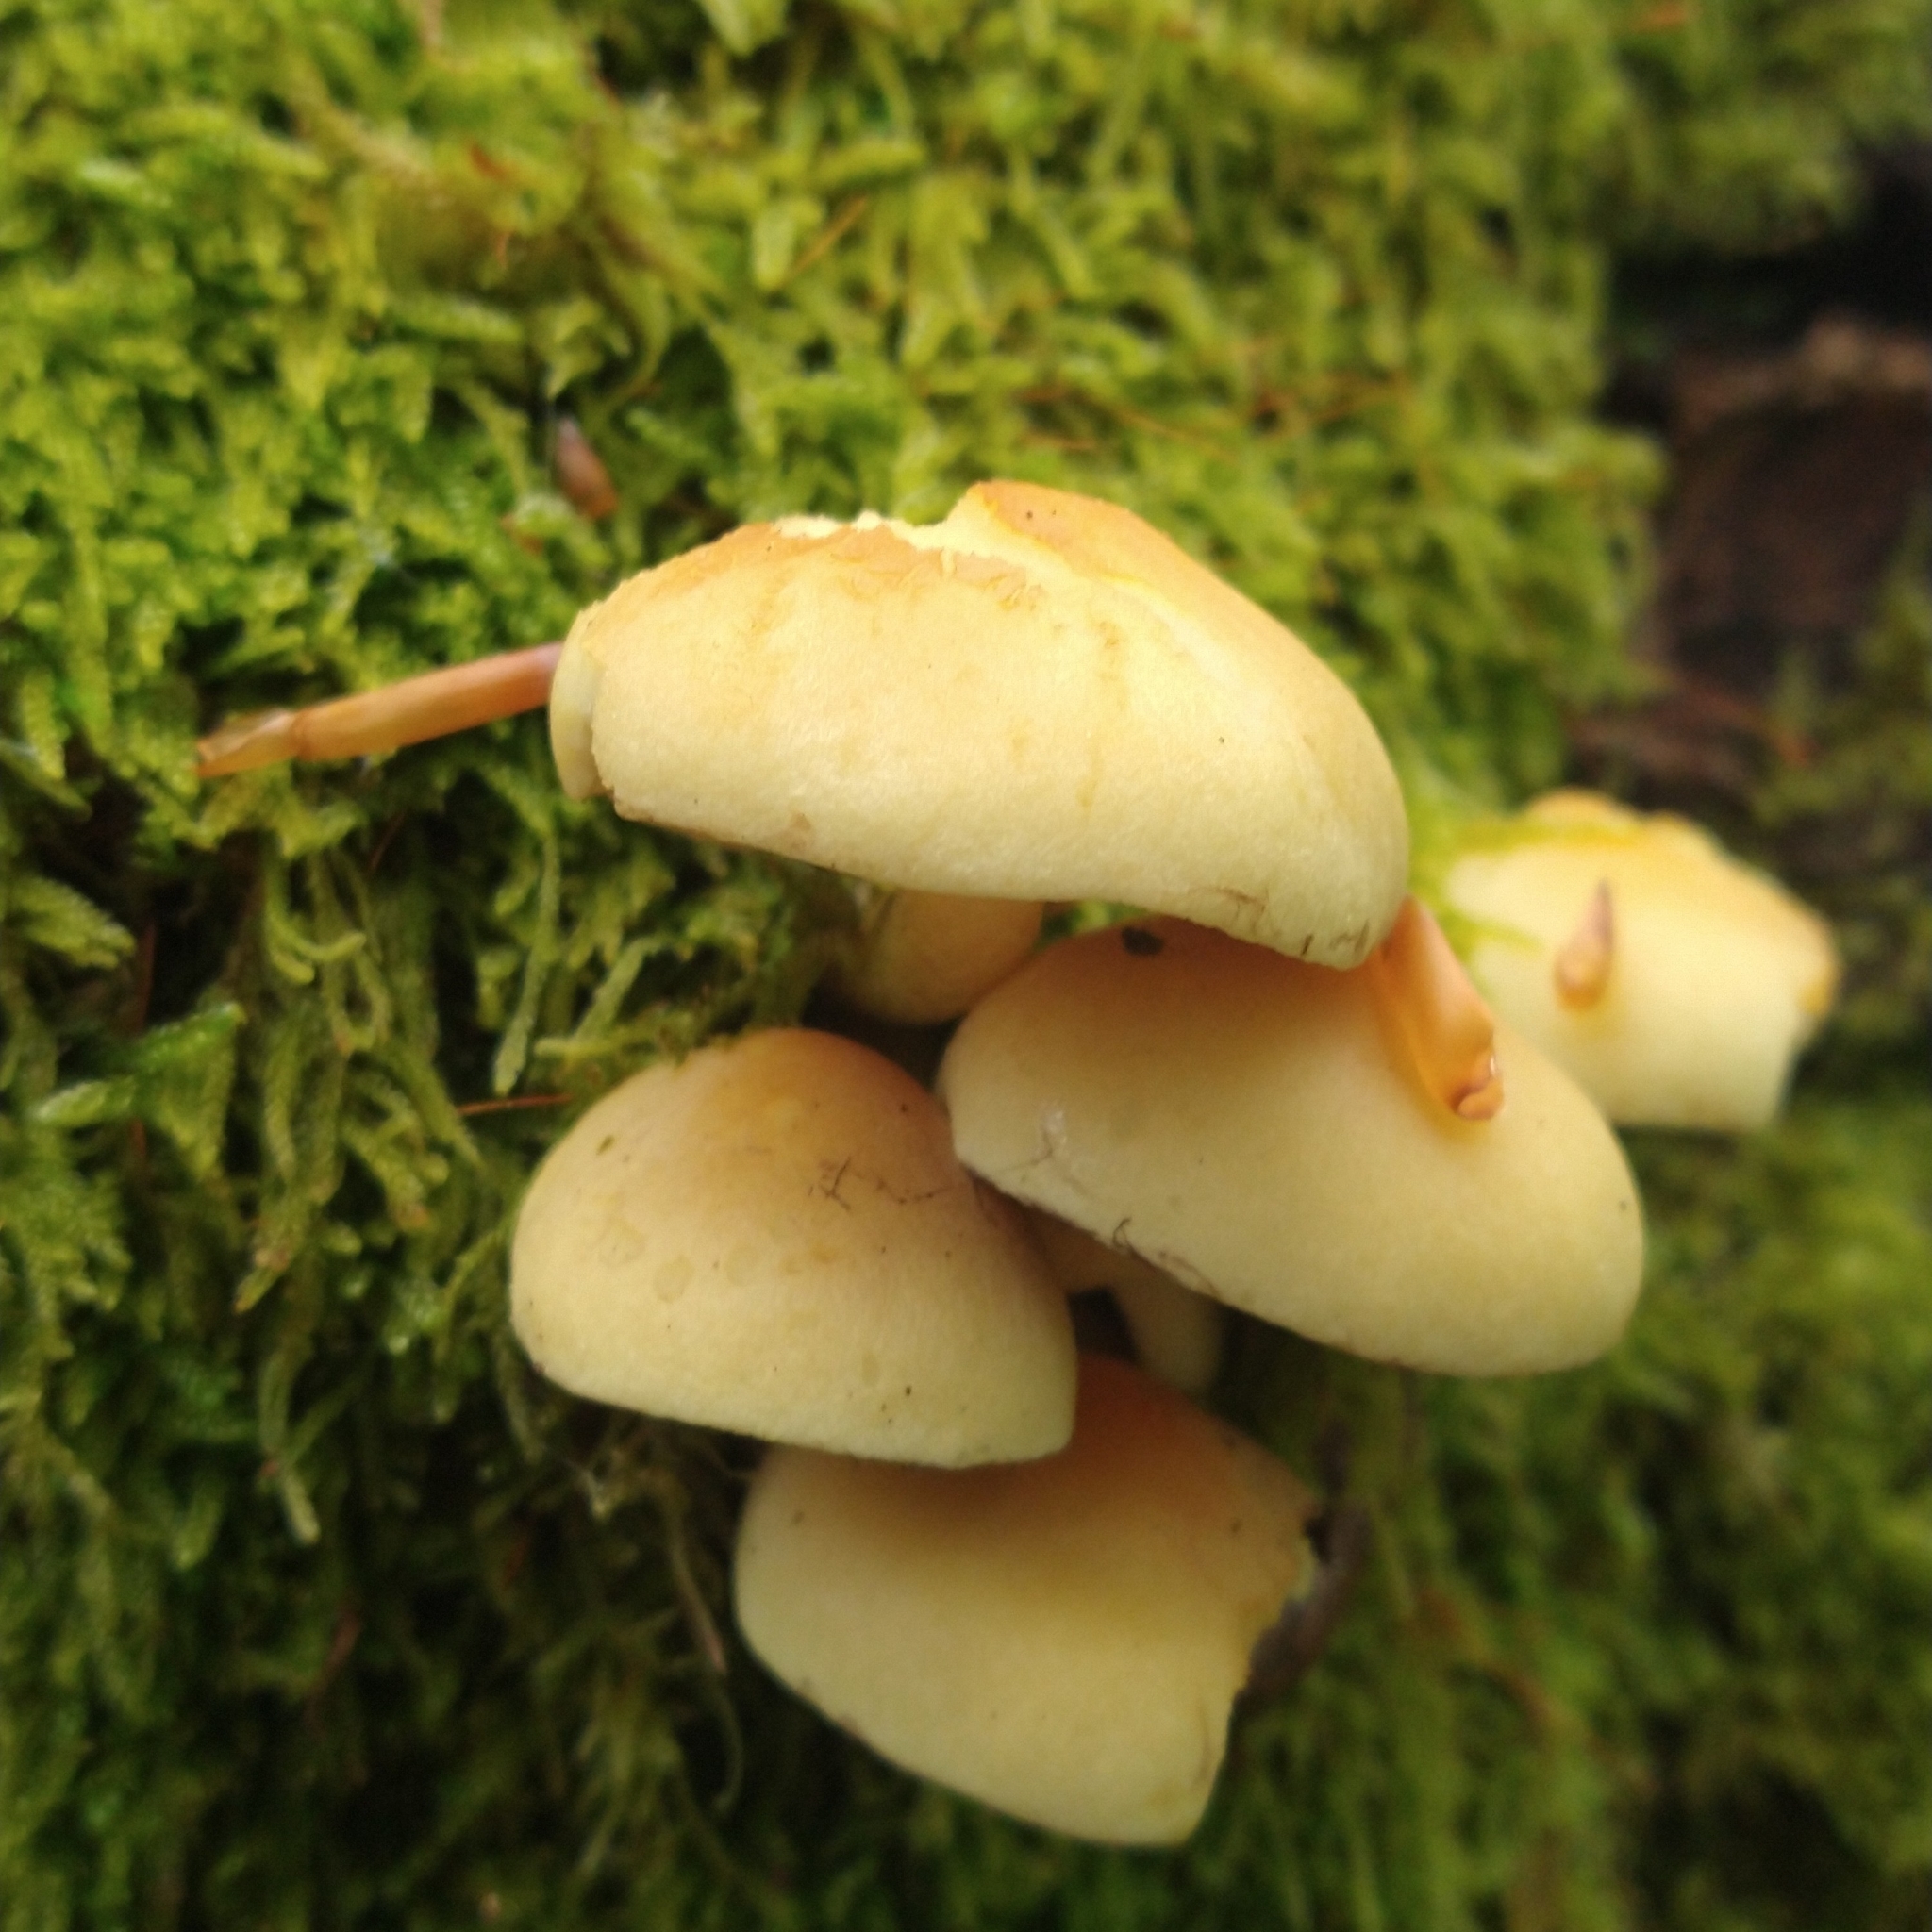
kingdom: Fungi
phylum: Basidiomycota
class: Agaricomycetes
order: Agaricales
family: Strophariaceae
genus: Hypholoma
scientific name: Hypholoma fasciculare
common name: Sulphur tuft
